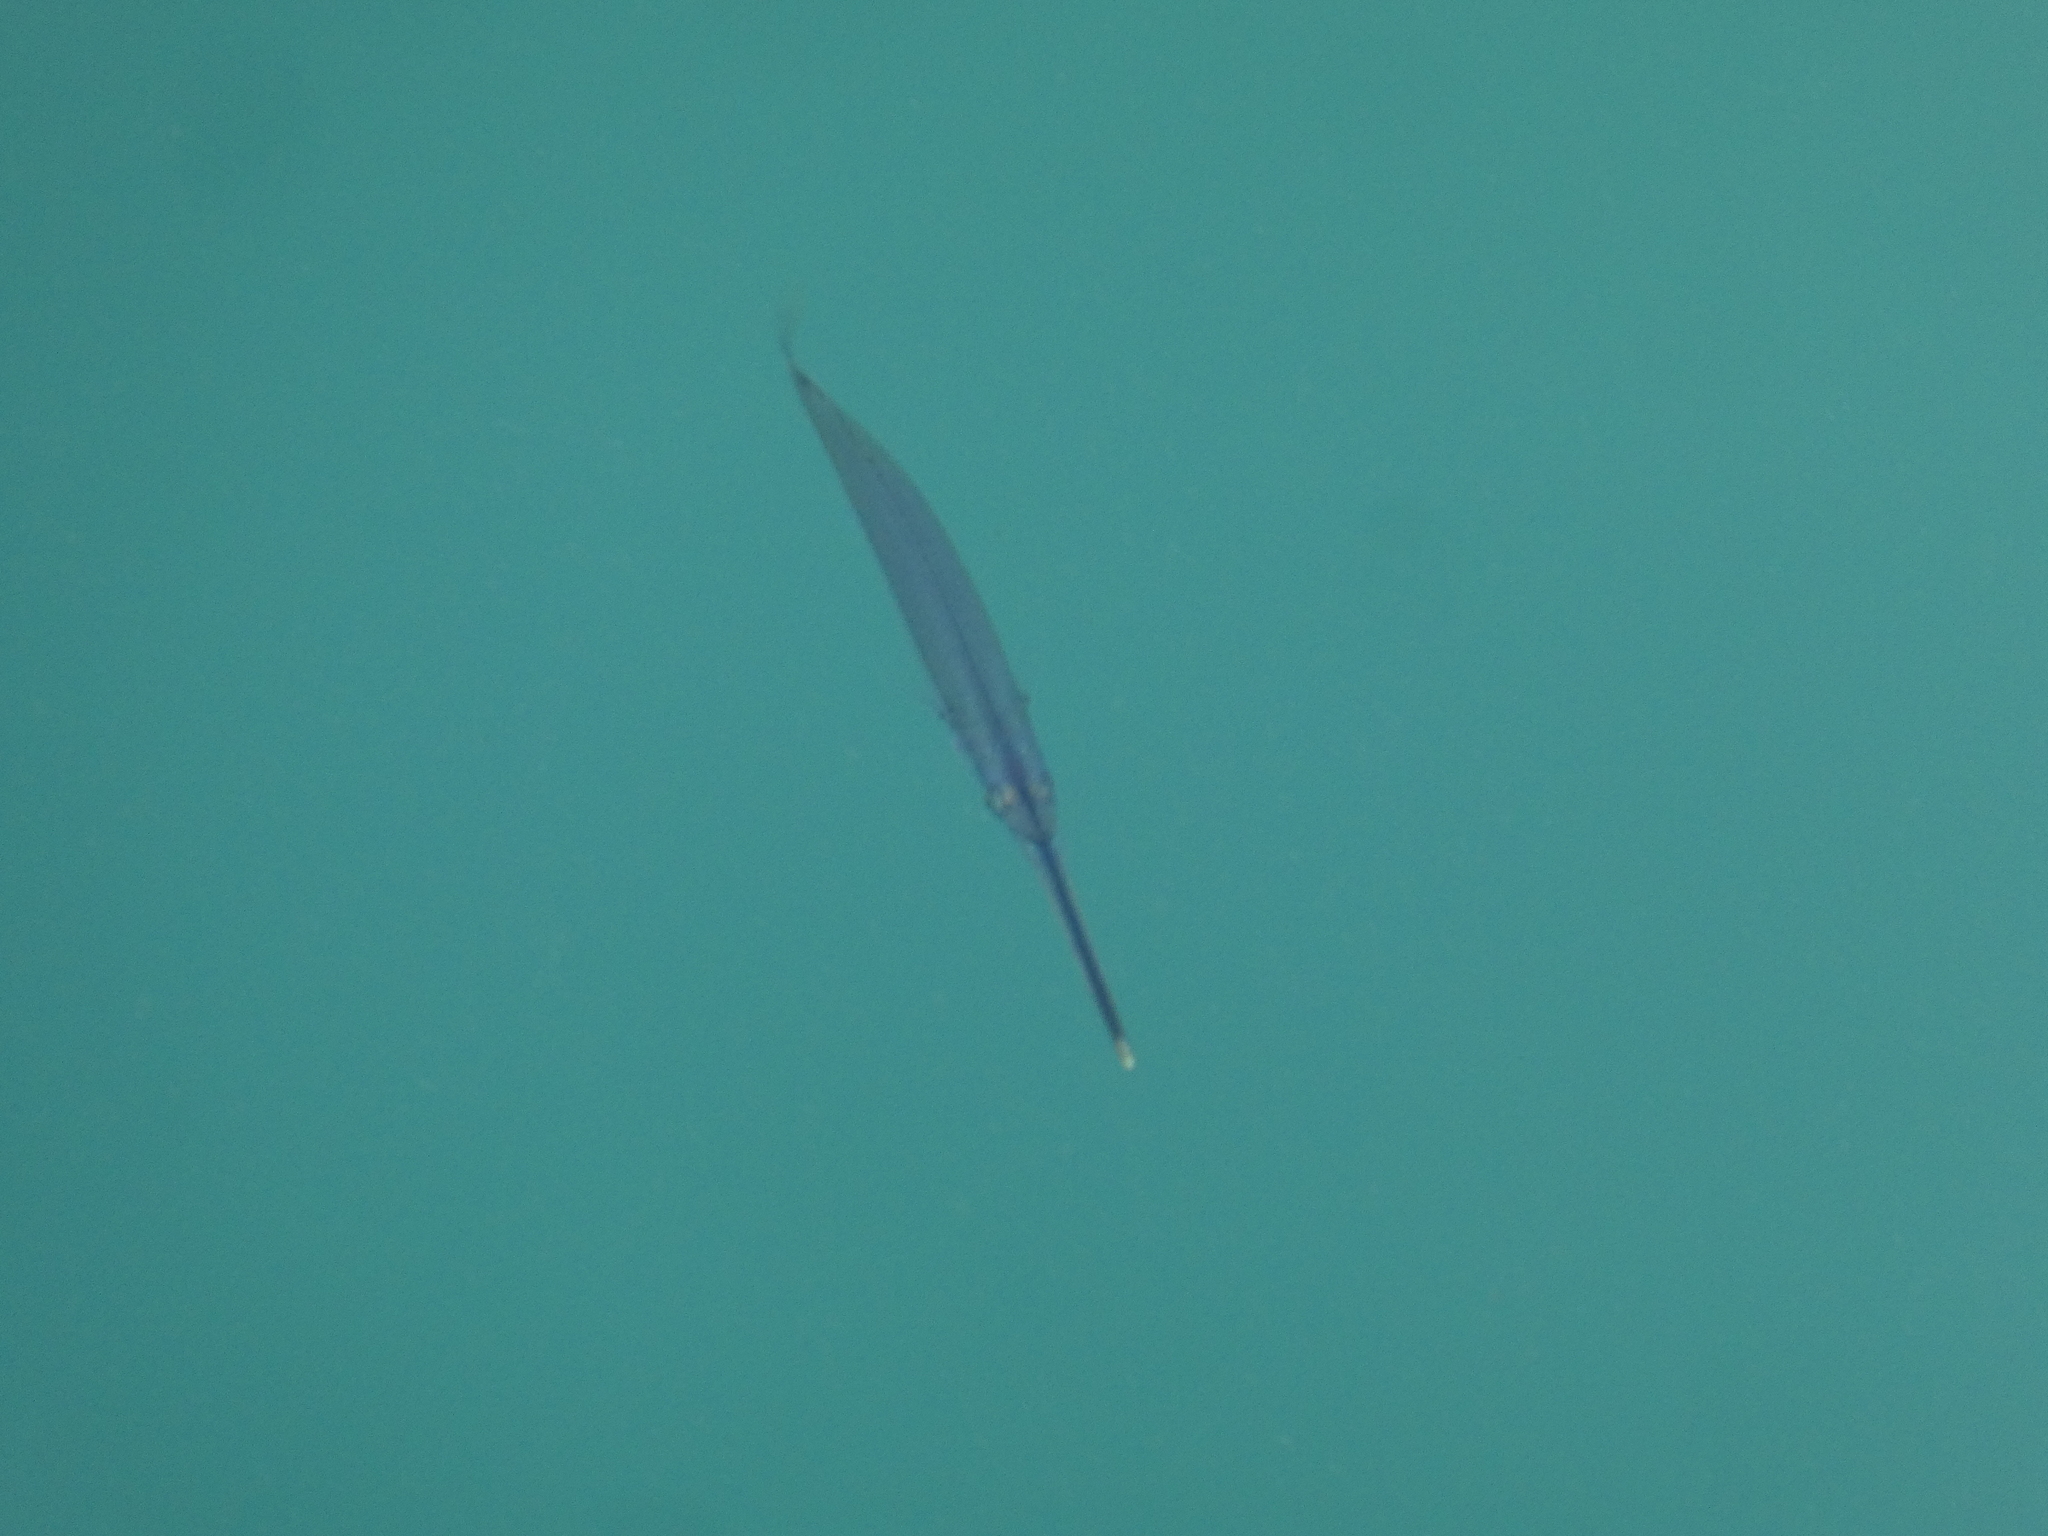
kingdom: Animalia
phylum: Chordata
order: Beloniformes
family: Zenarchopteridae
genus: Zenarchopterus
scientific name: Zenarchopterus buffonis
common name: Buffon's river-garfish
